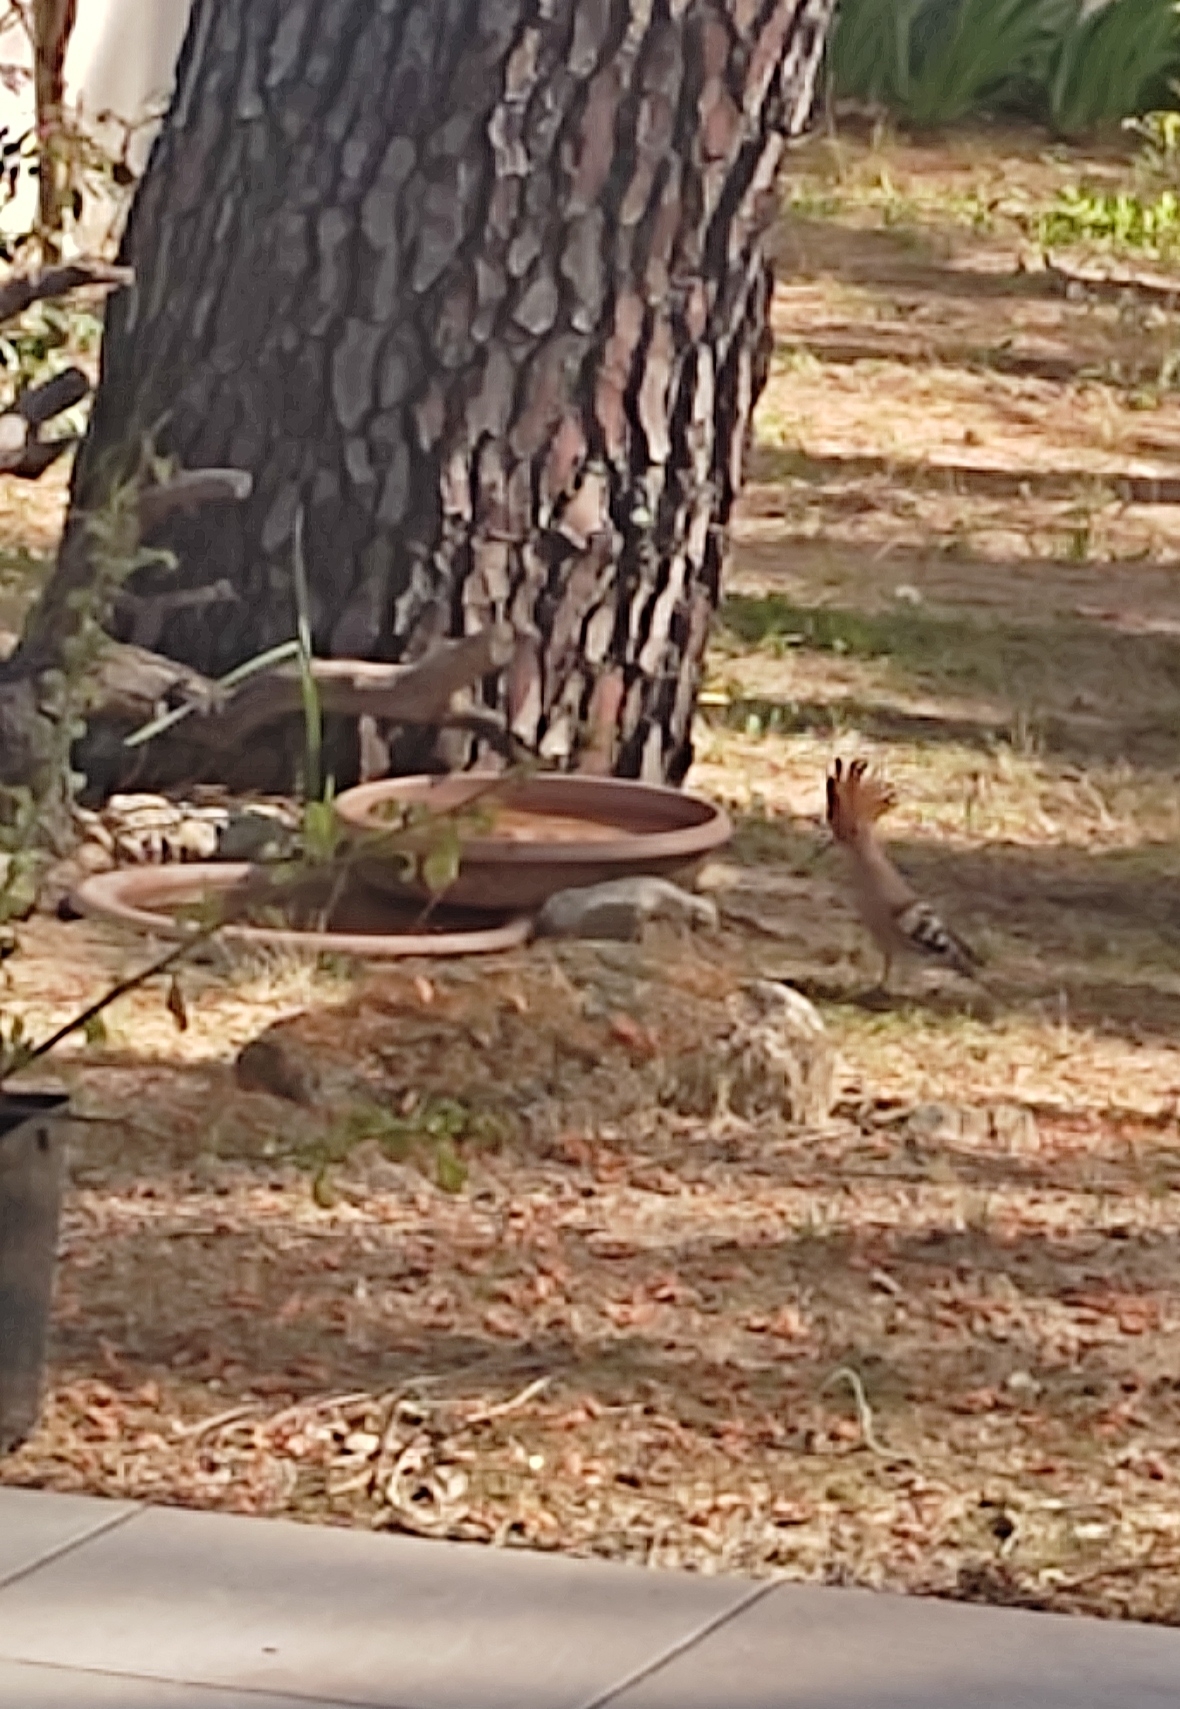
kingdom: Animalia
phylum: Chordata
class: Aves
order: Bucerotiformes
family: Upupidae
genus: Upupa
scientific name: Upupa epops
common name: Eurasian hoopoe
